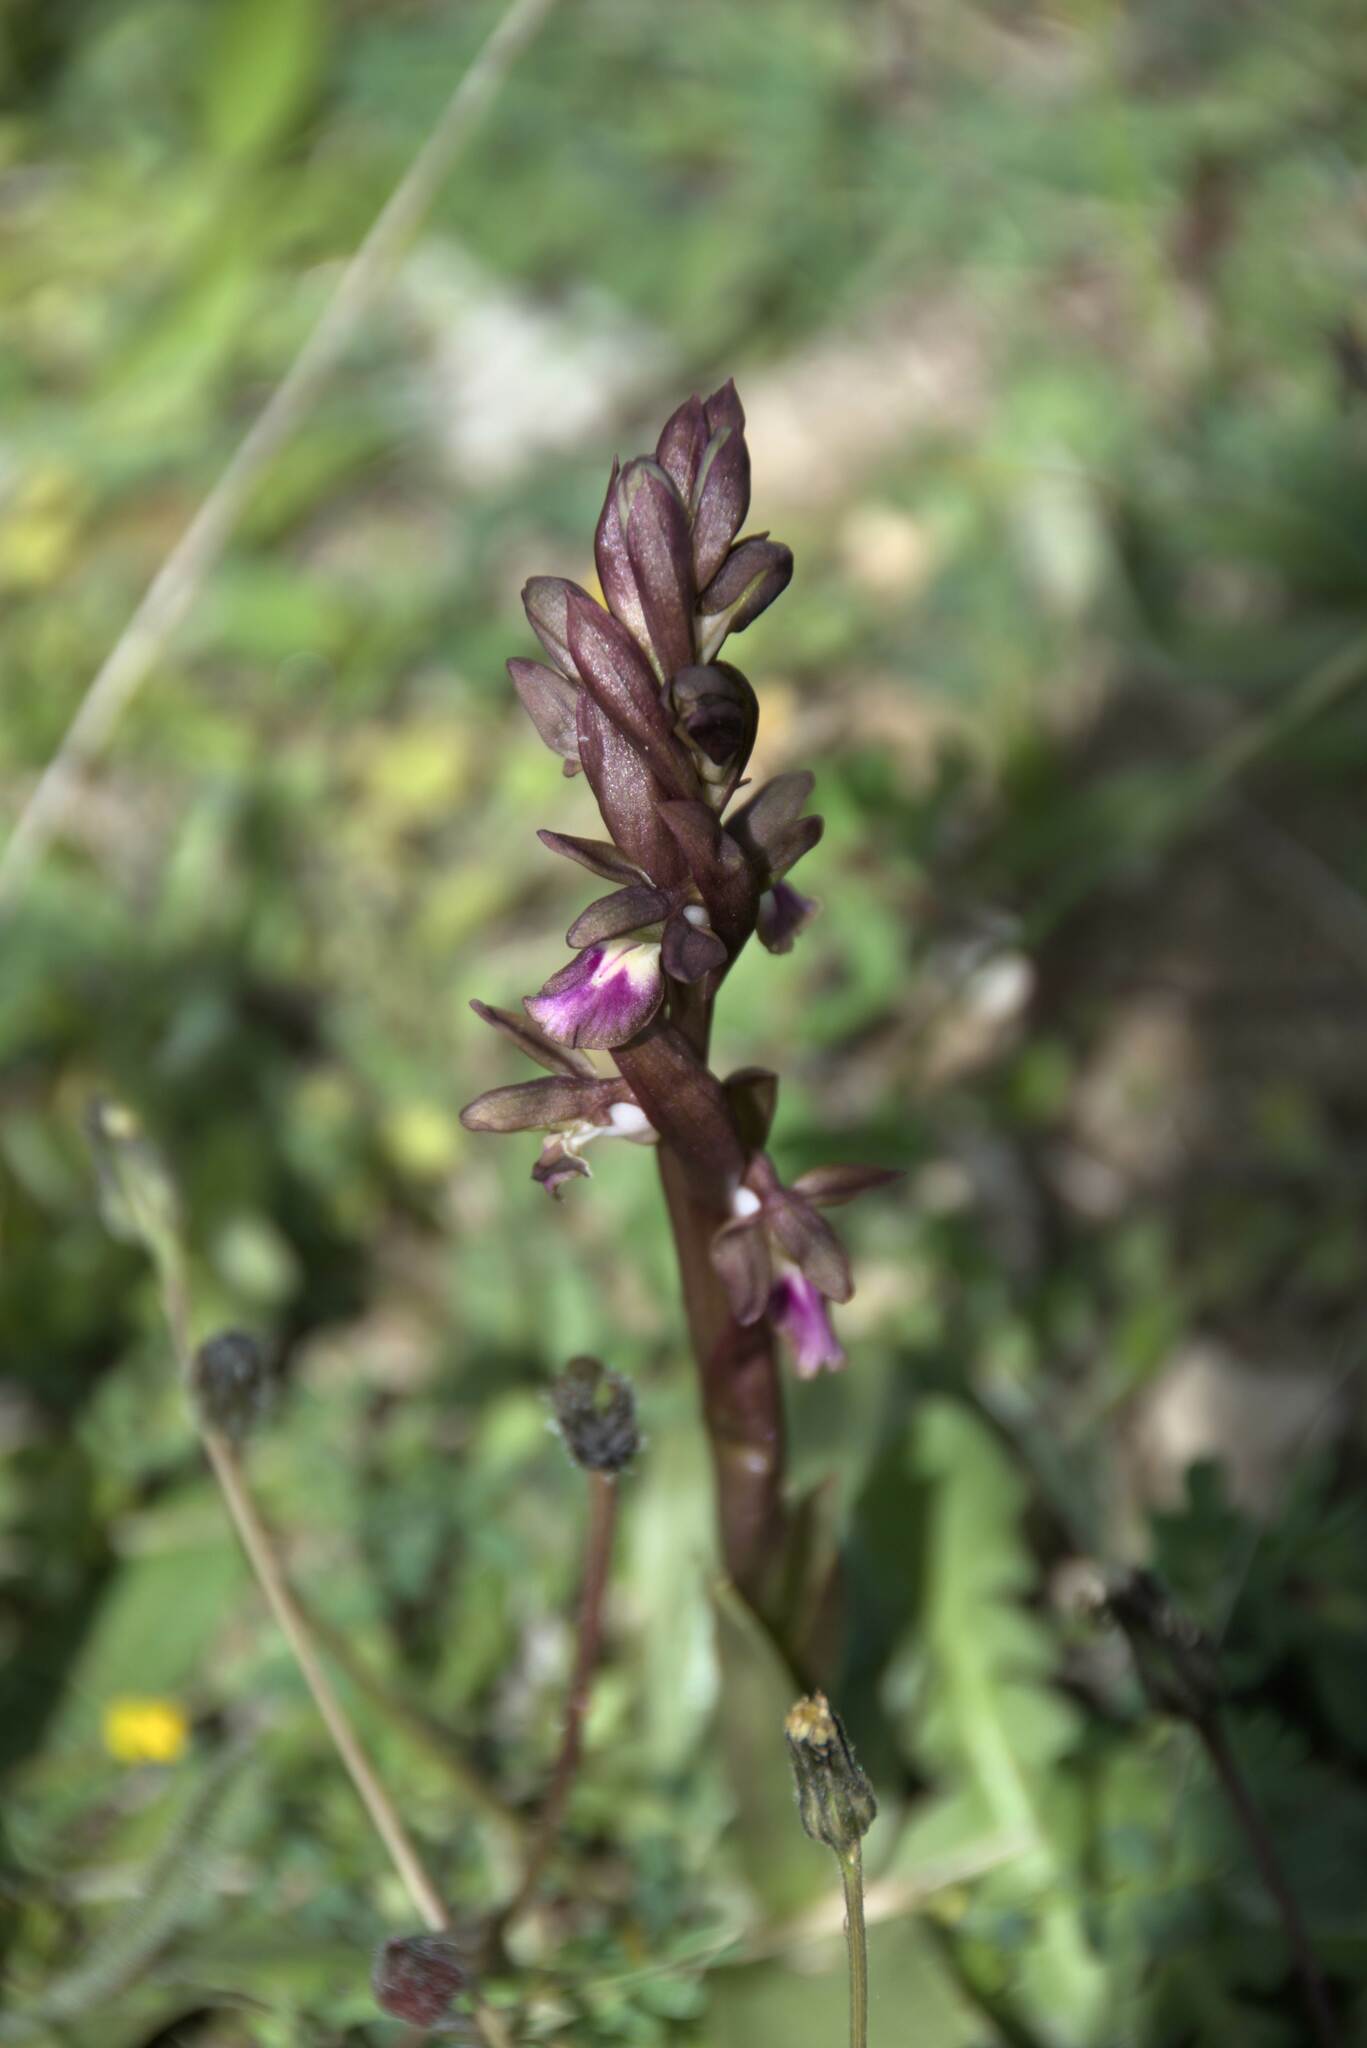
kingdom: Plantae
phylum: Tracheophyta
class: Liliopsida
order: Asparagales
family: Orchidaceae
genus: Anacamptis
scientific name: Anacamptis collina
